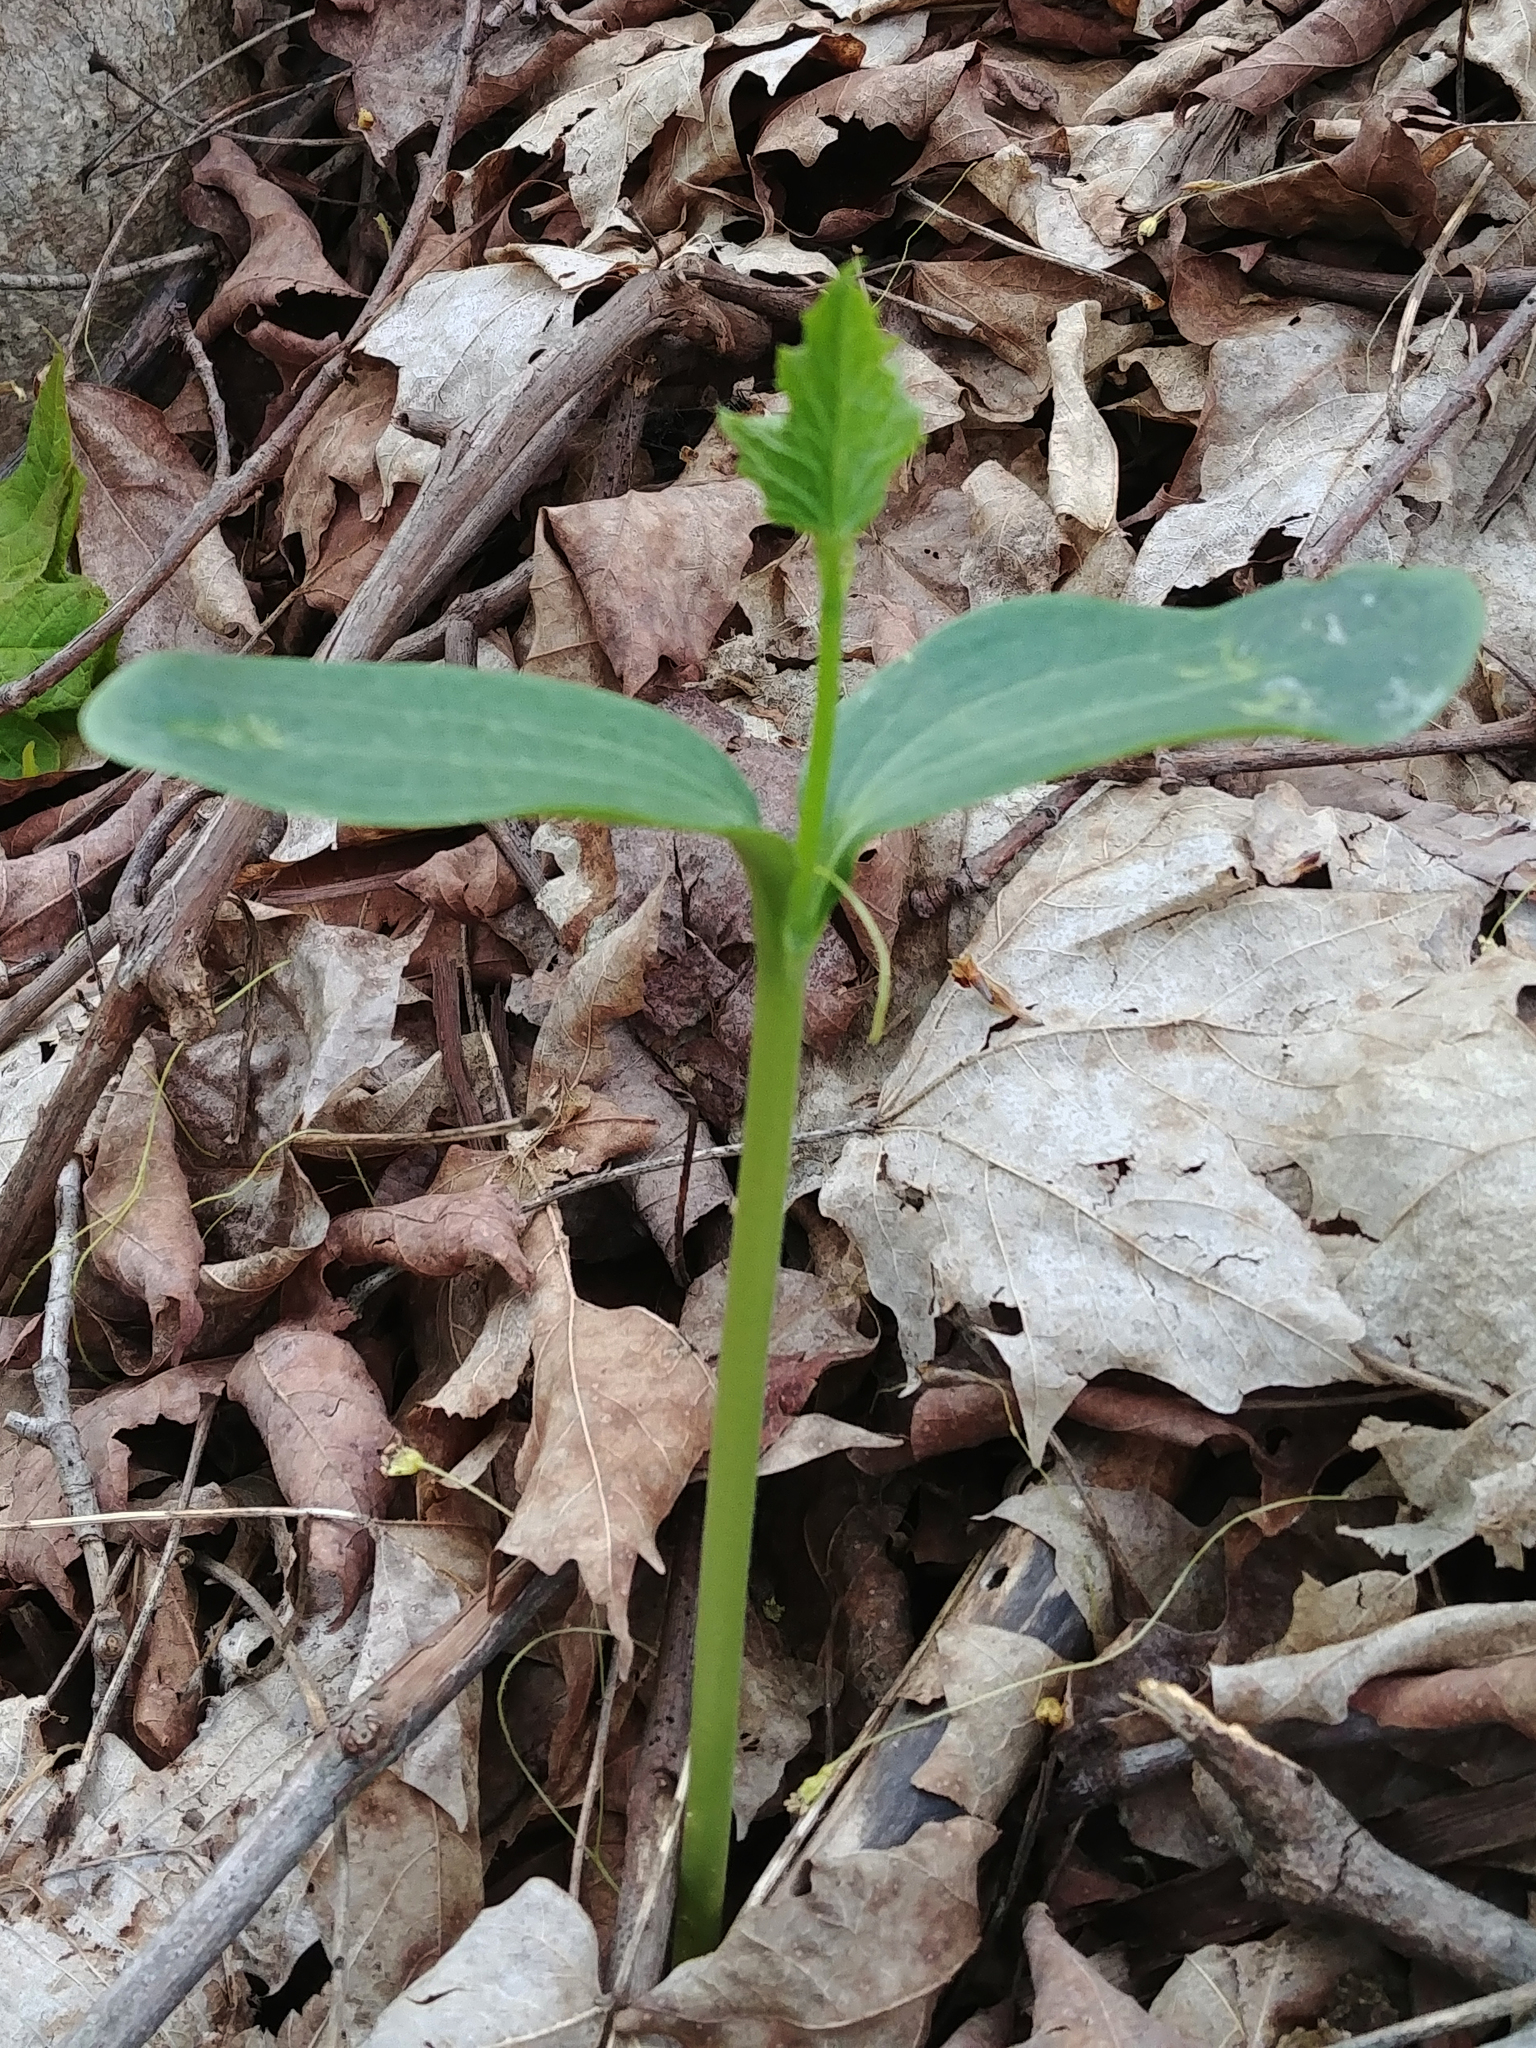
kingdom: Plantae
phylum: Tracheophyta
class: Magnoliopsida
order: Cucurbitales
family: Cucurbitaceae
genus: Echinocystis
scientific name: Echinocystis lobata
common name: Wild cucumber
